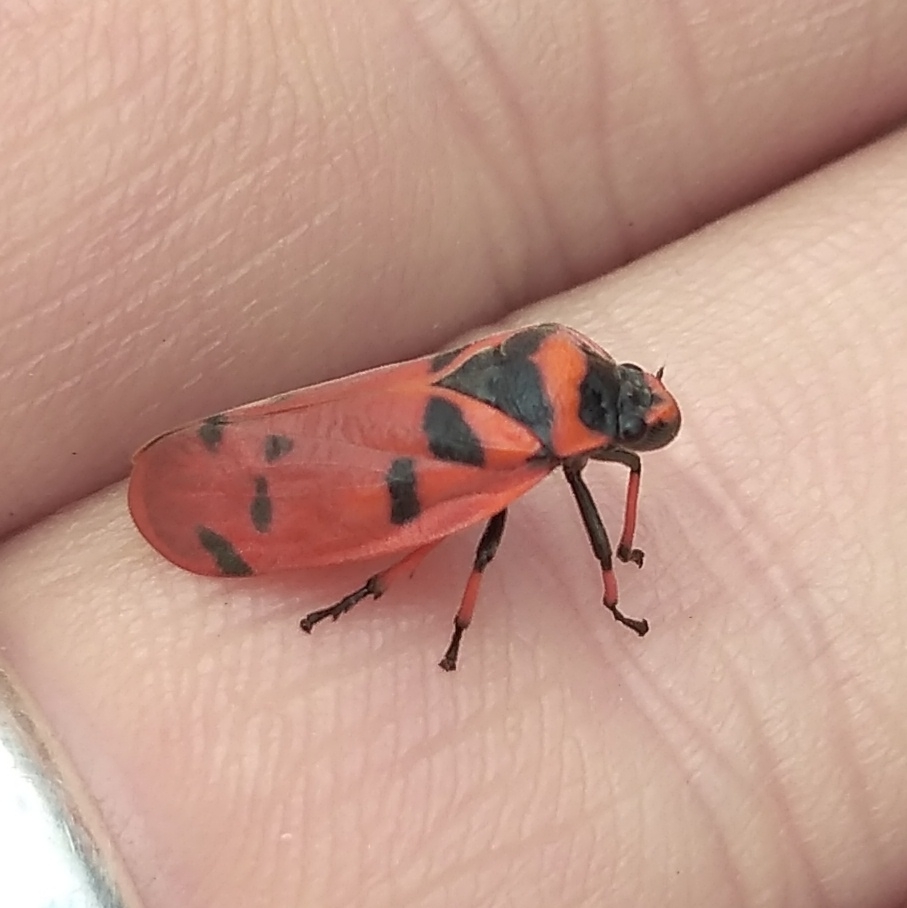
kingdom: Animalia
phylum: Arthropoda
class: Insecta
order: Hemiptera
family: Cercopidae
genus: Locris
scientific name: Locris arithmetica
